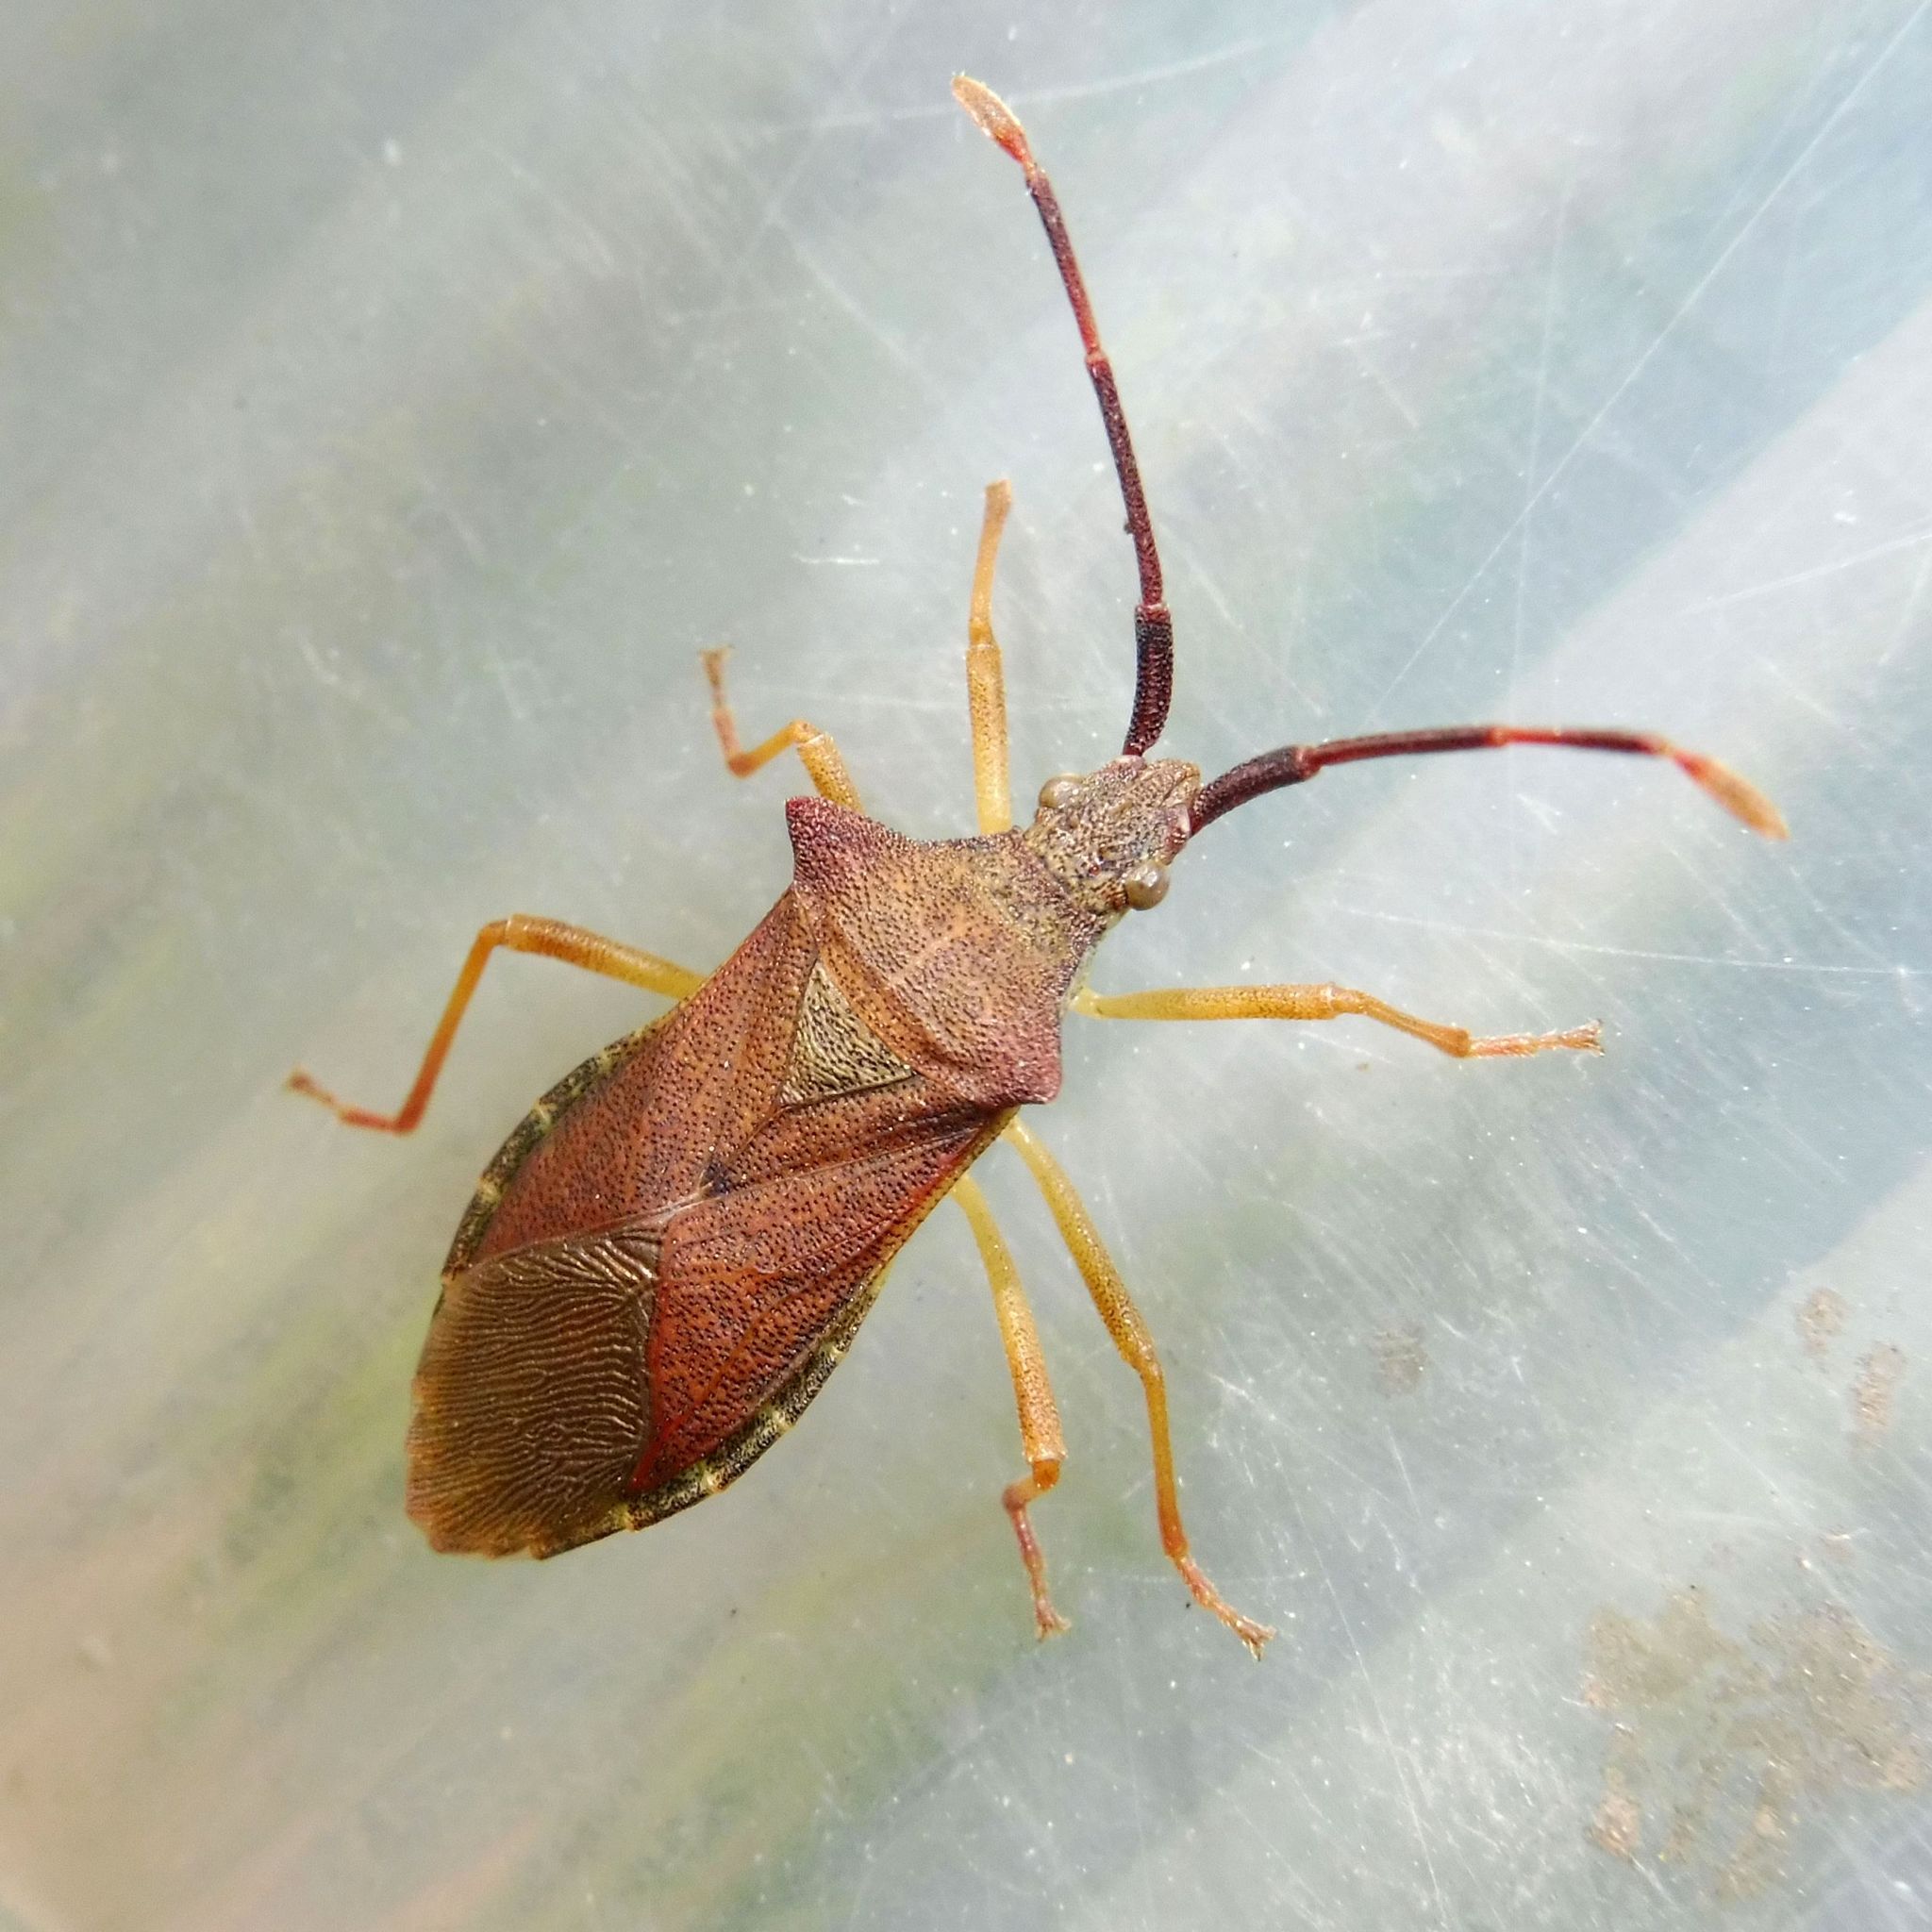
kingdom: Animalia
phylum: Arthropoda
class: Insecta
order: Hemiptera
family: Coreidae
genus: Gonocerus
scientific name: Gonocerus acuteangulatus
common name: Box bug
